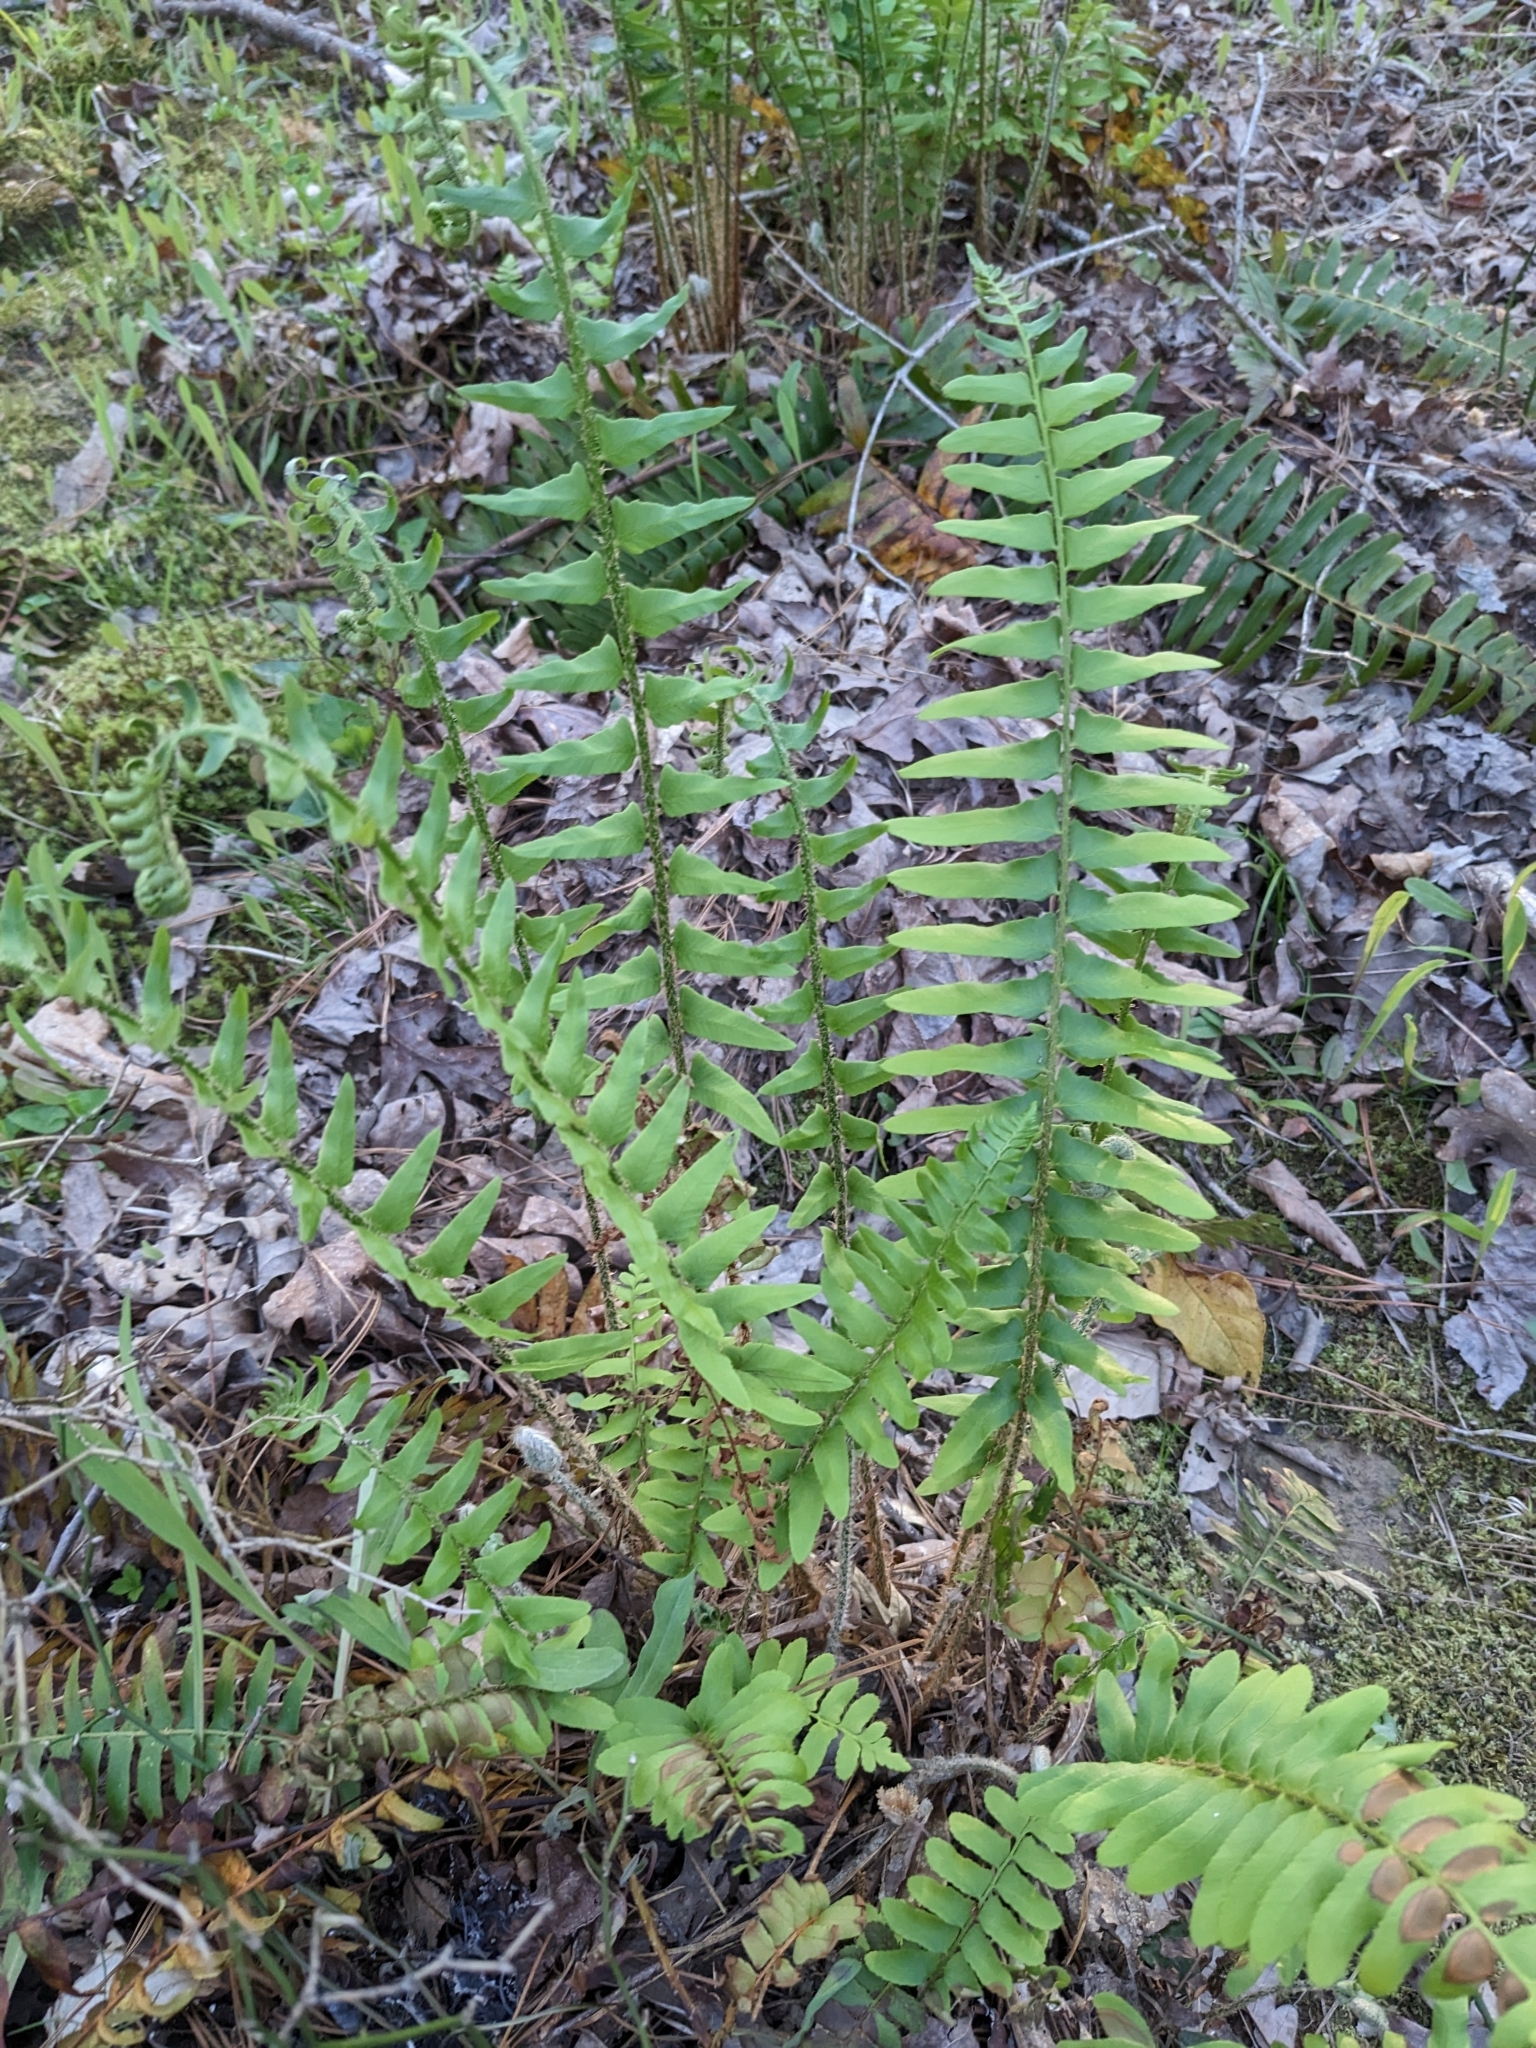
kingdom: Plantae
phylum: Tracheophyta
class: Polypodiopsida
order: Polypodiales
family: Dryopteridaceae
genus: Polystichum
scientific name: Polystichum acrostichoides
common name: Christmas fern
